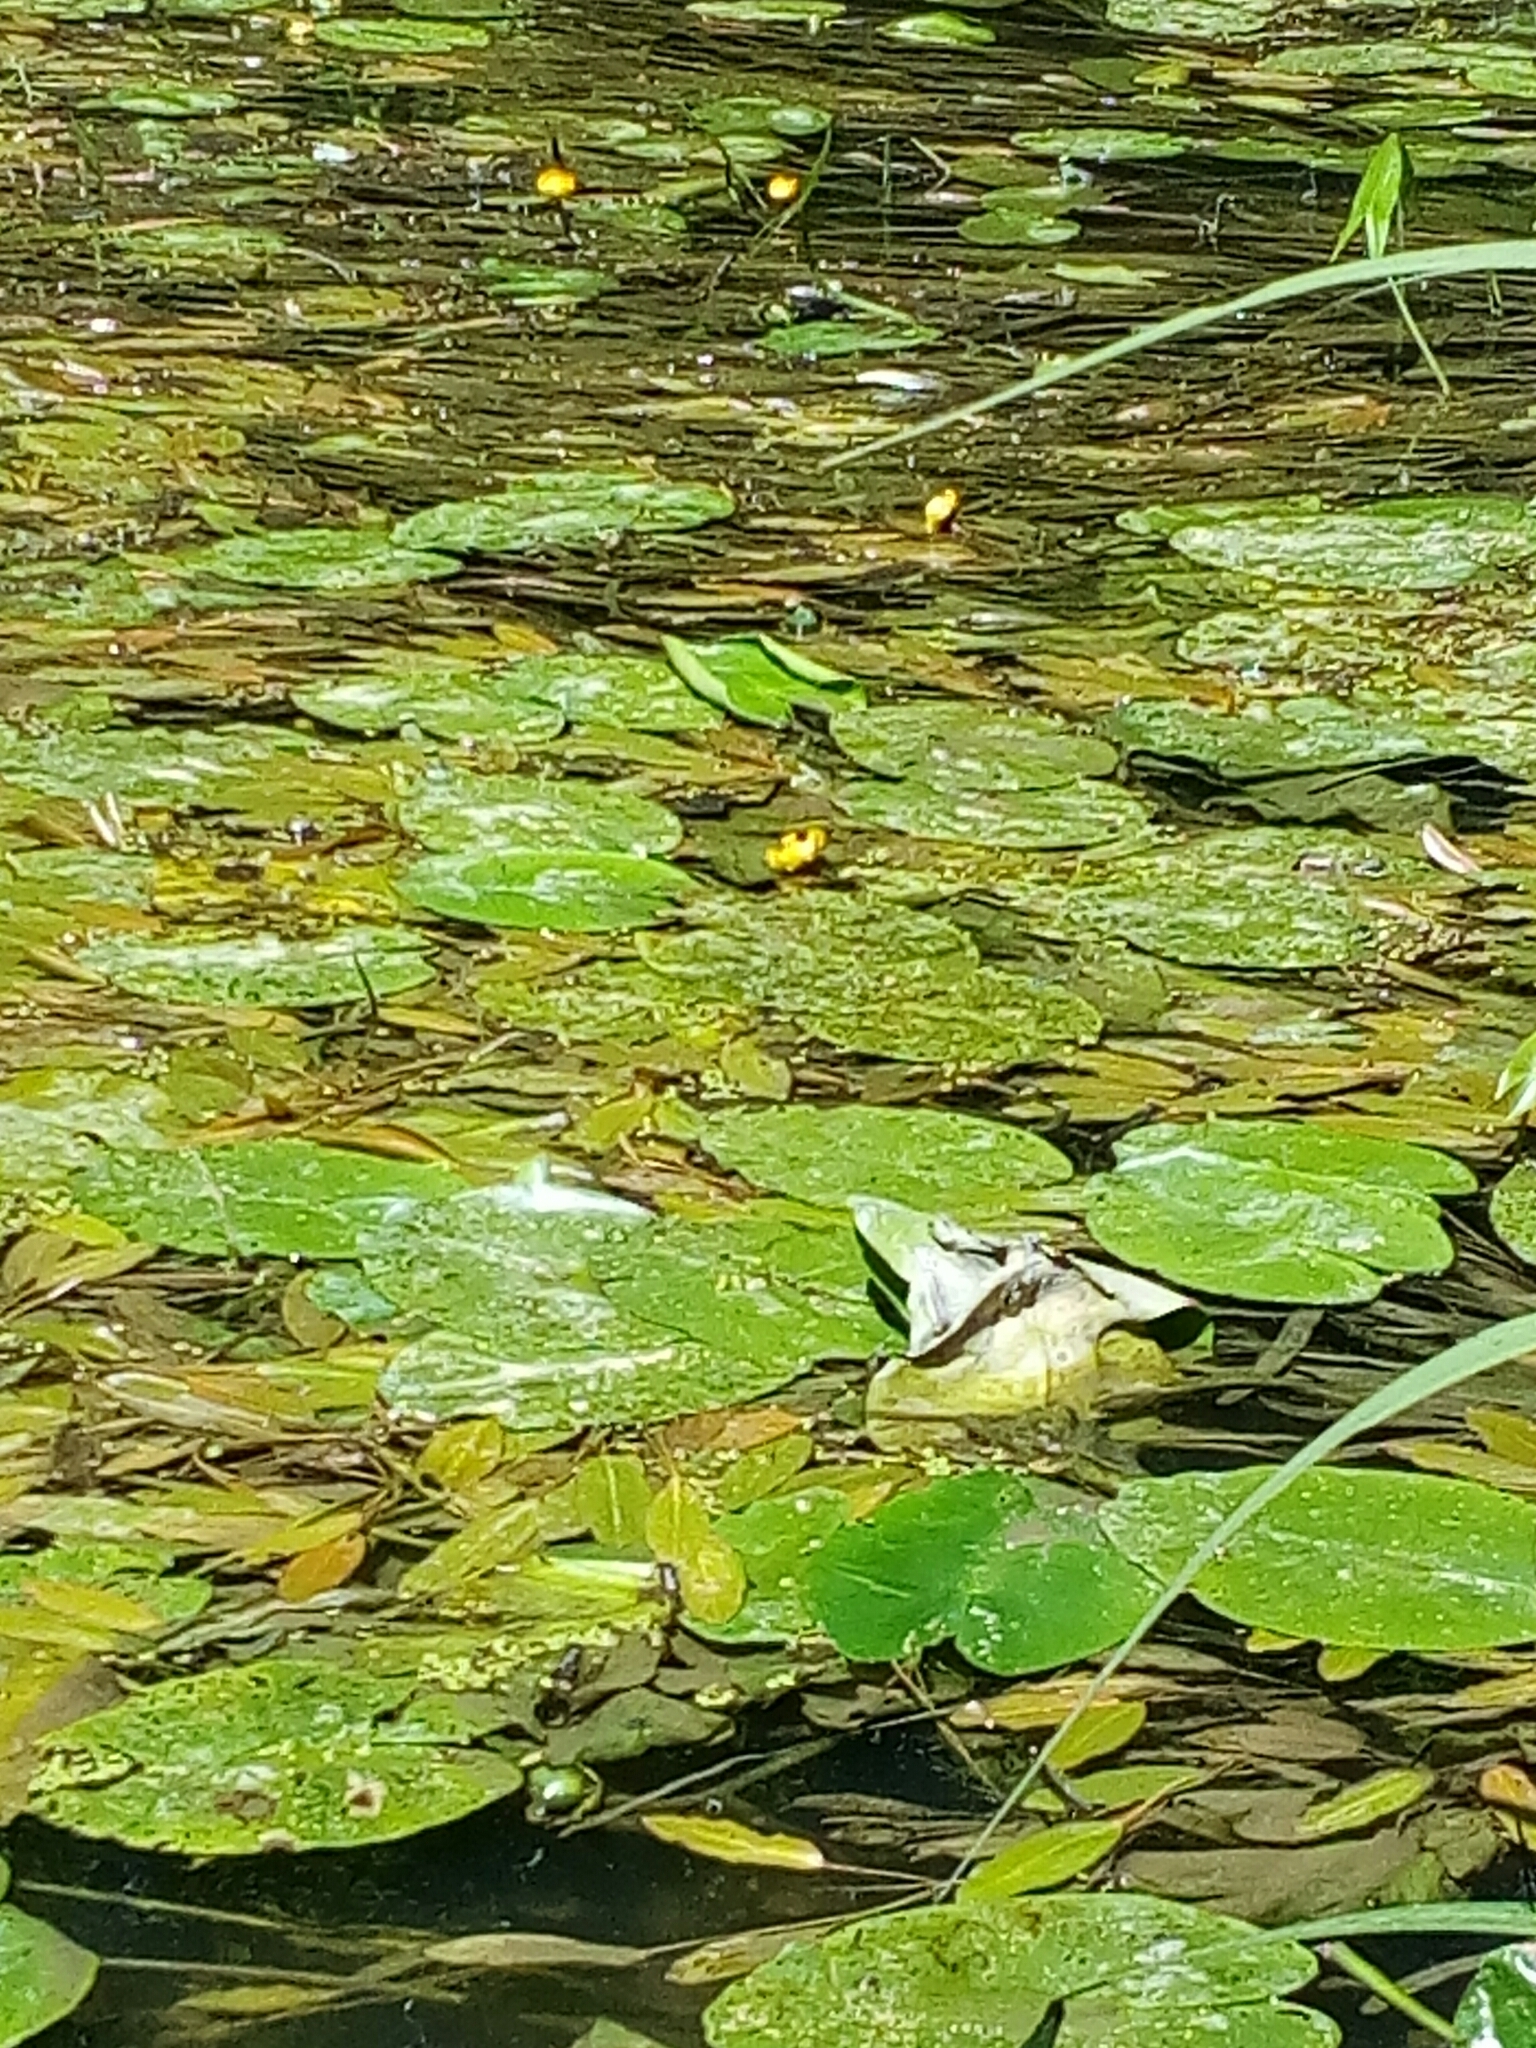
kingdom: Plantae
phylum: Tracheophyta
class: Magnoliopsida
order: Nymphaeales
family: Nymphaeaceae
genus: Nuphar
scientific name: Nuphar lutea
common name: Yellow water-lily
